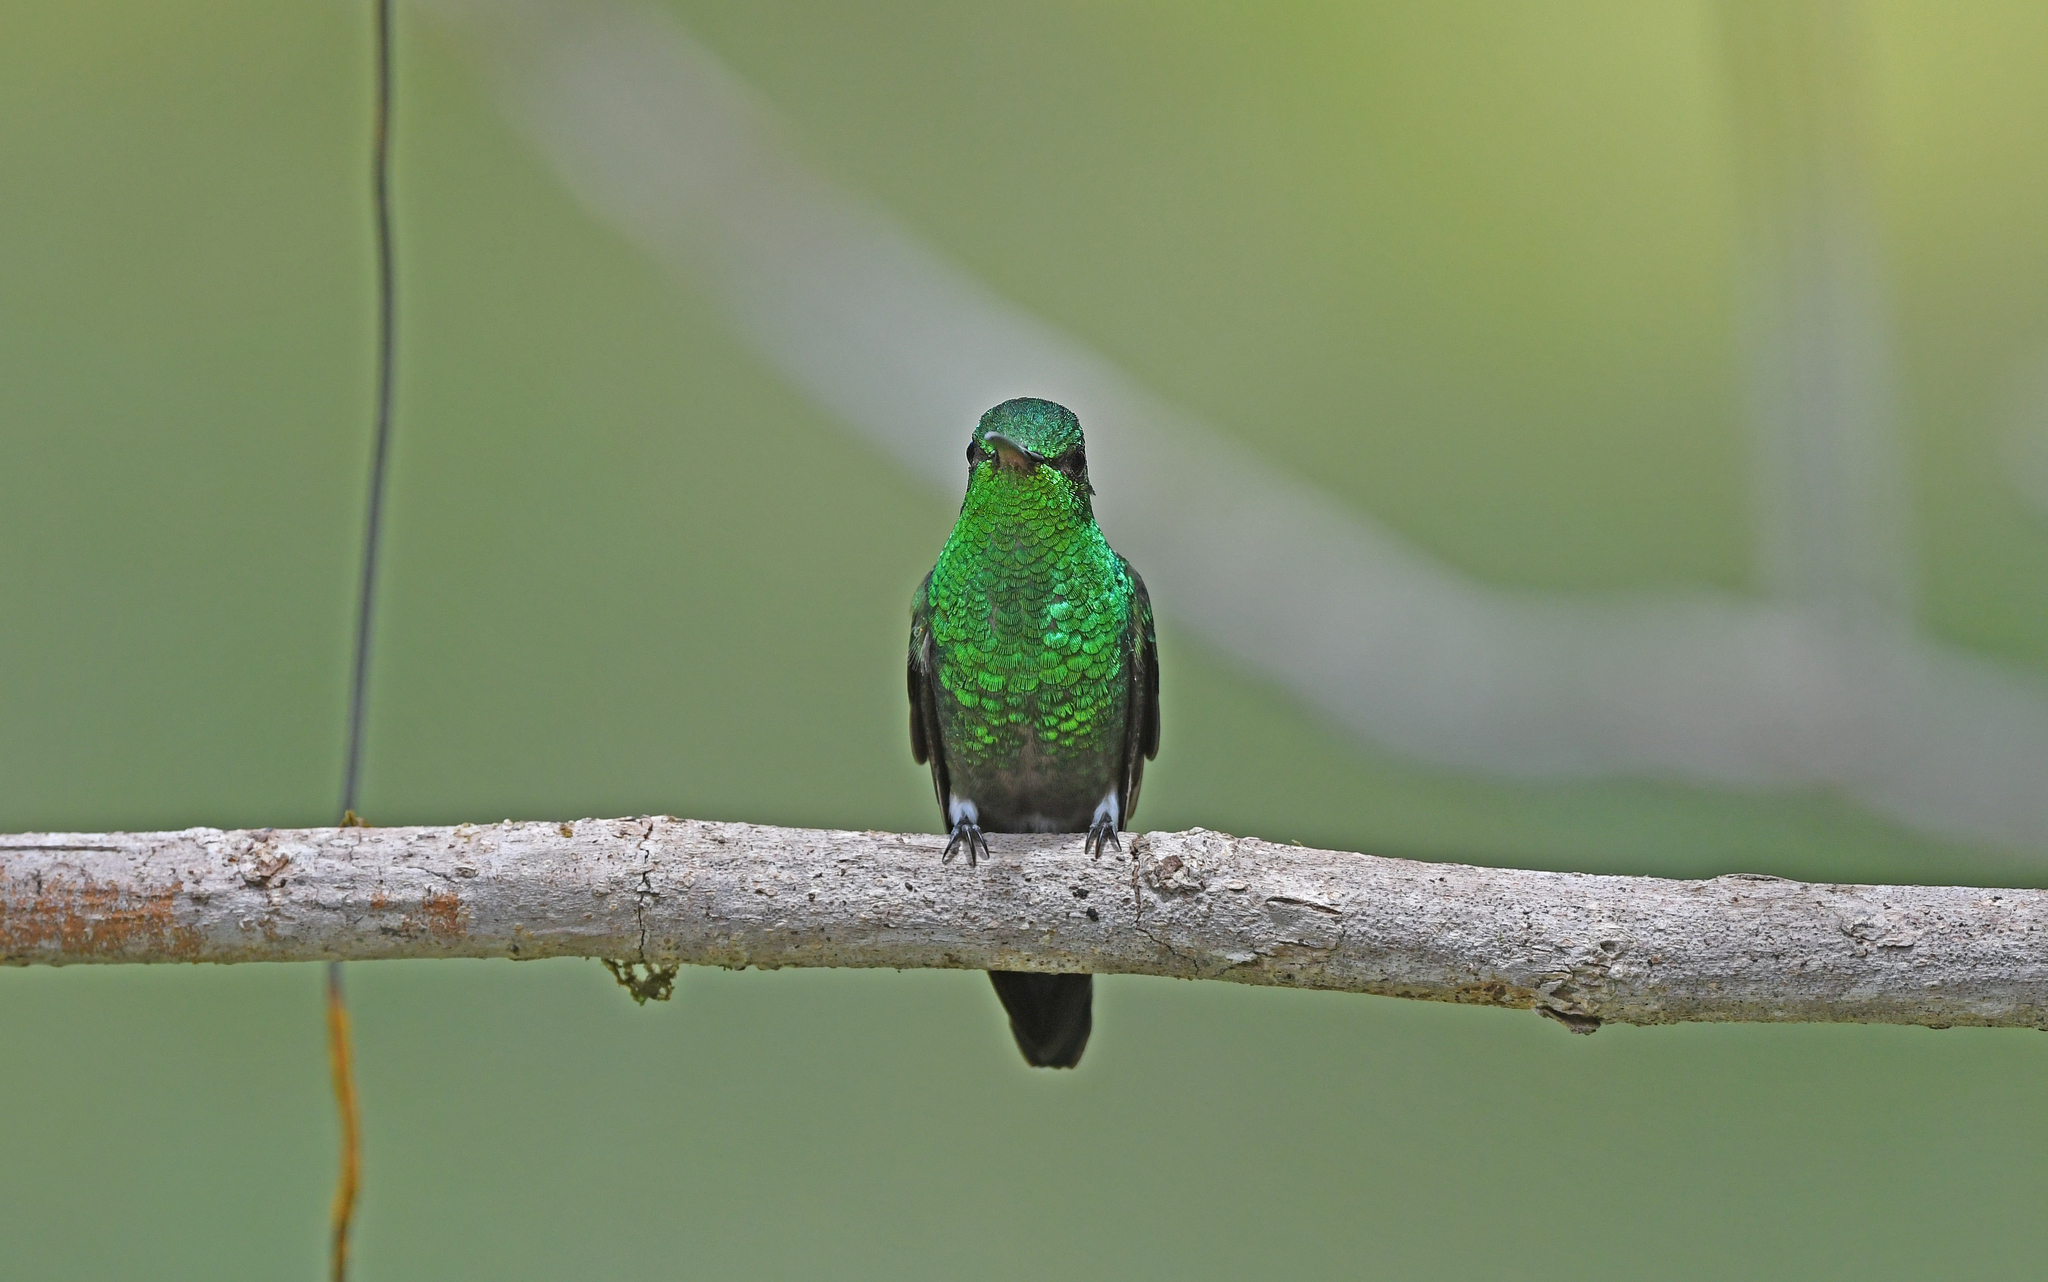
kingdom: Animalia
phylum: Chordata
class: Aves
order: Apodiformes
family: Trochilidae
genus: Saucerottia
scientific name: Saucerottia saucerottei
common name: Steely-vented hummingbird
